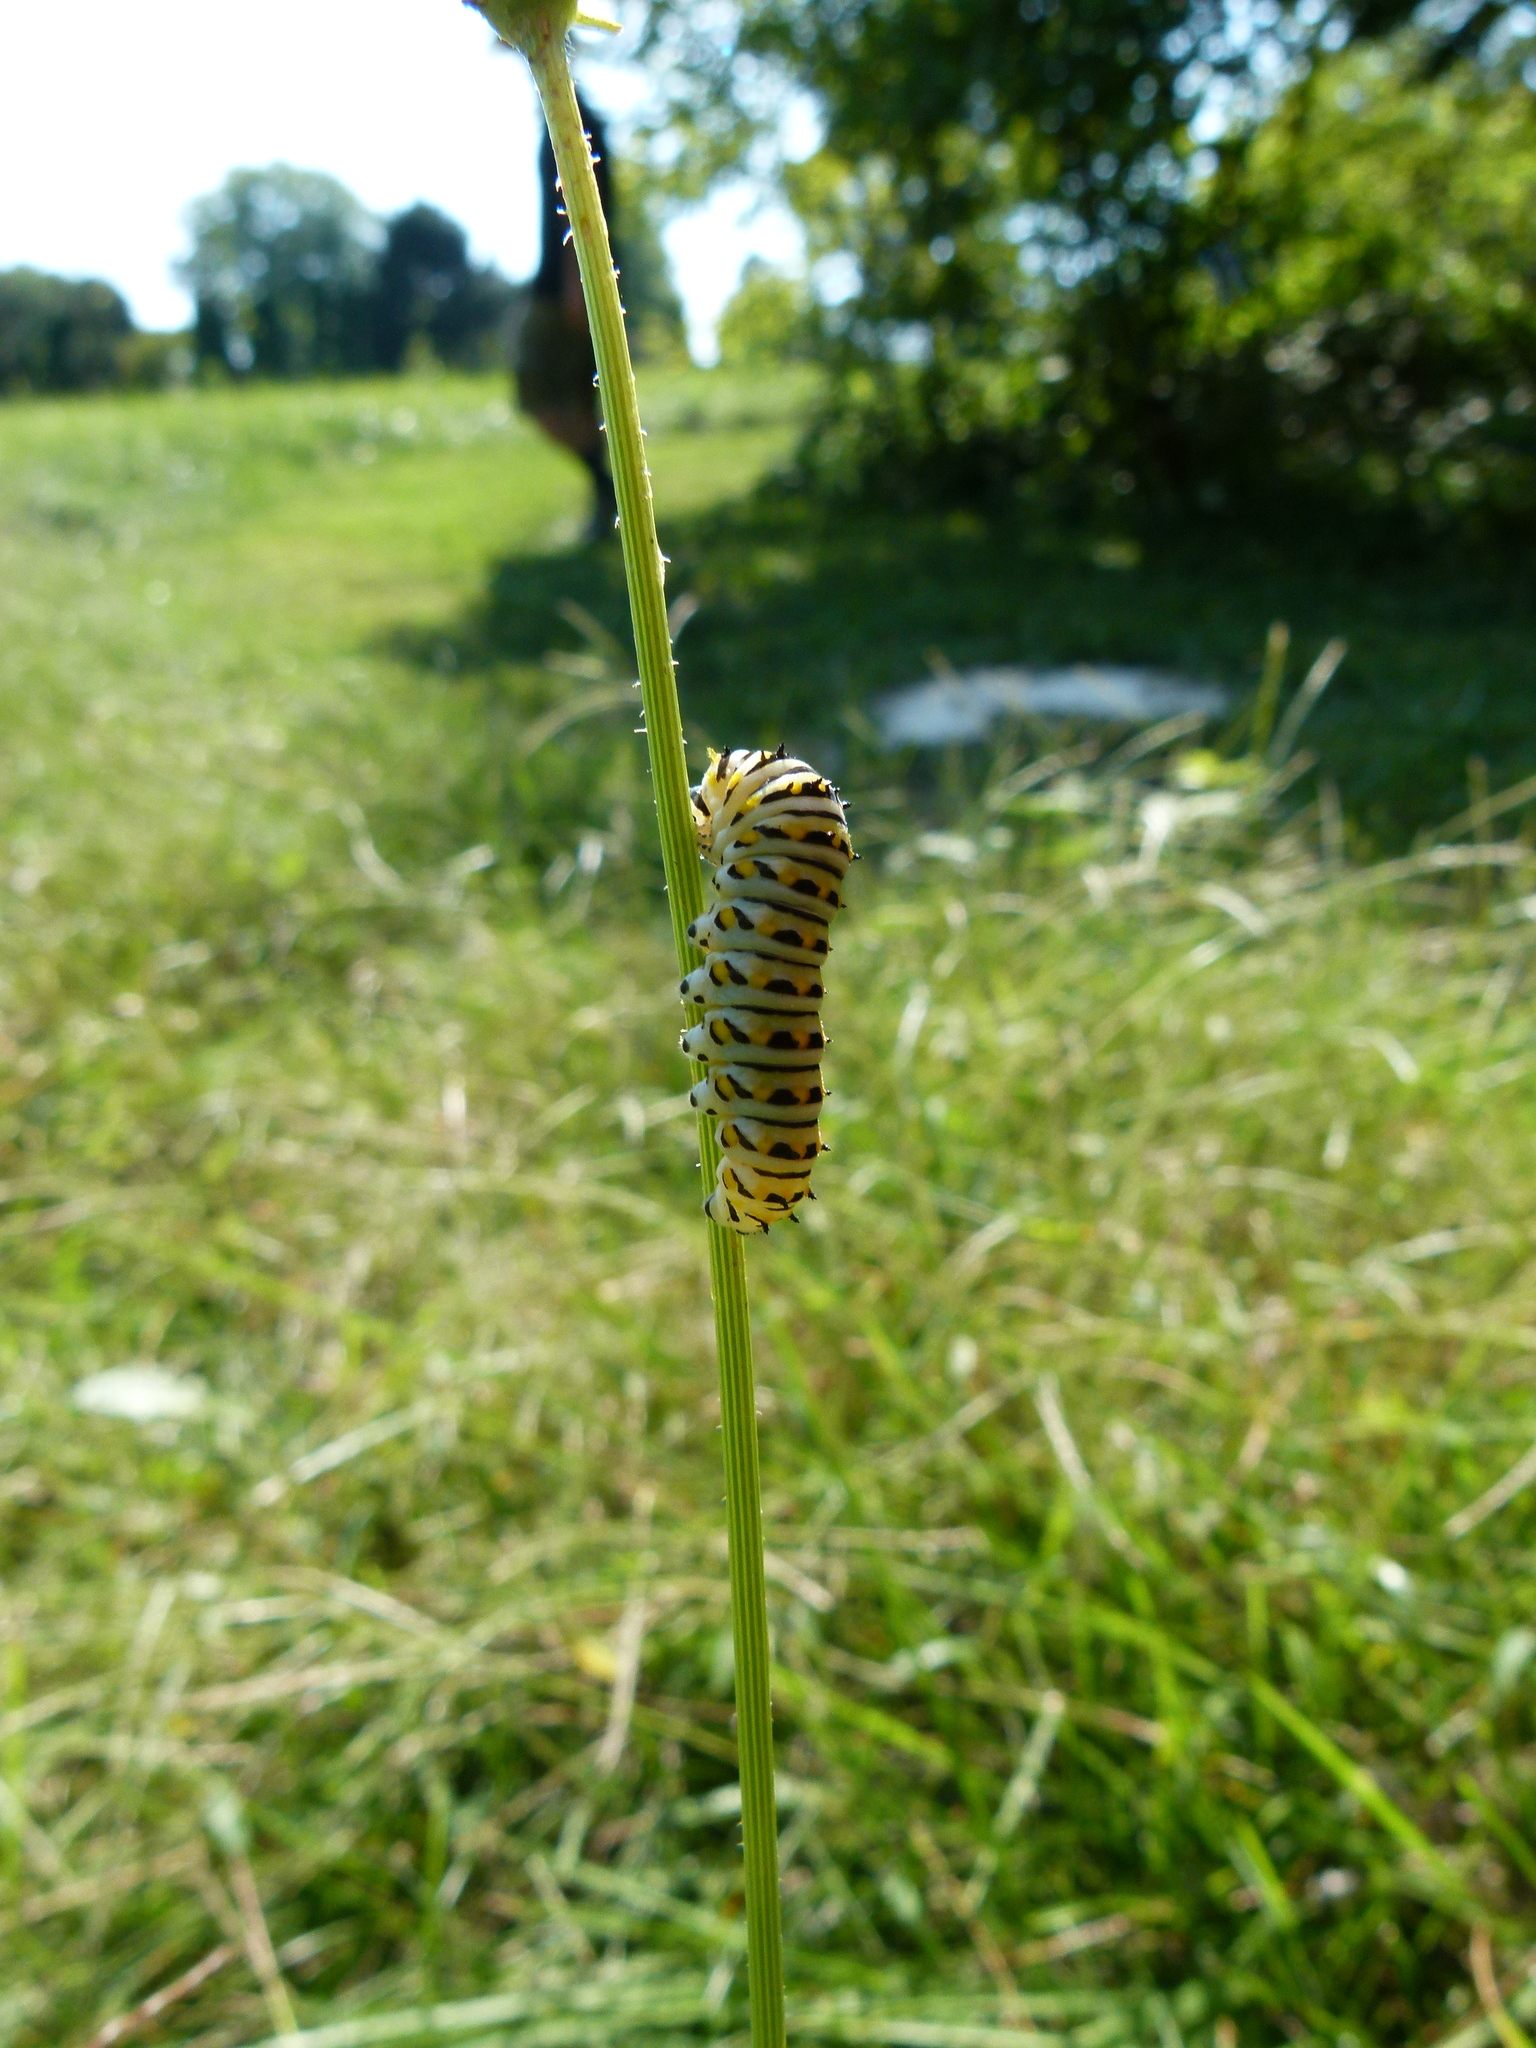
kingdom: Animalia
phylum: Arthropoda
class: Insecta
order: Lepidoptera
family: Papilionidae
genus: Papilio
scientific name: Papilio polyxenes
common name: Black swallowtail
